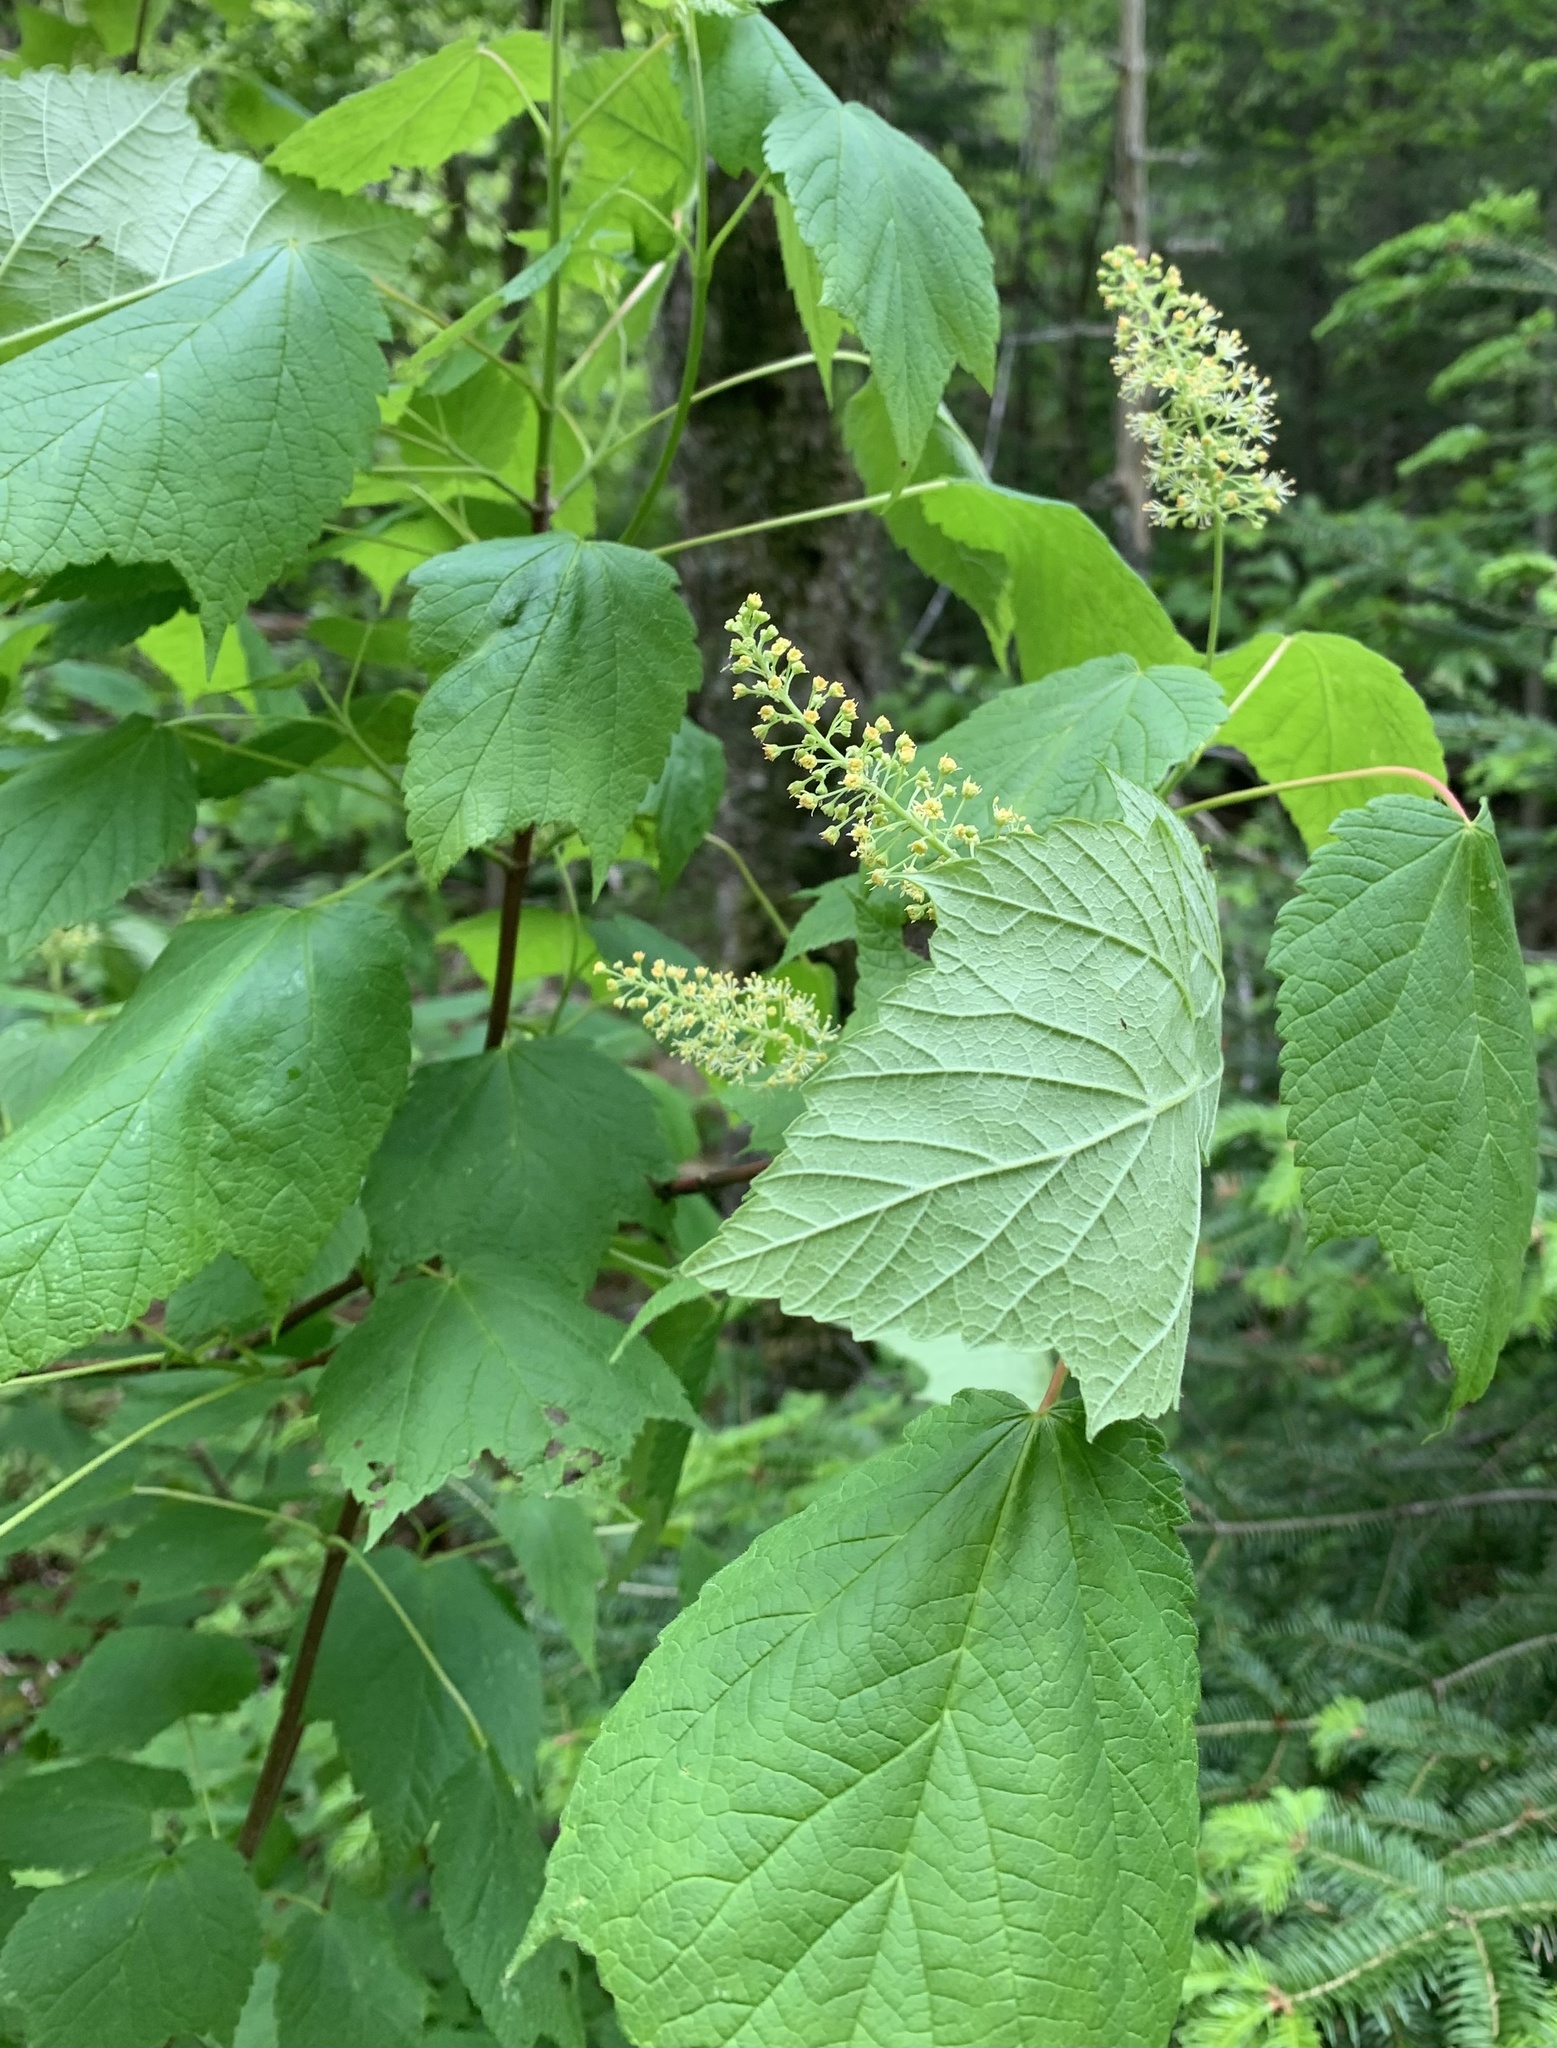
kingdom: Plantae
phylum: Tracheophyta
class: Magnoliopsida
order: Sapindales
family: Sapindaceae
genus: Acer
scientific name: Acer spicatum
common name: Mountain maple
